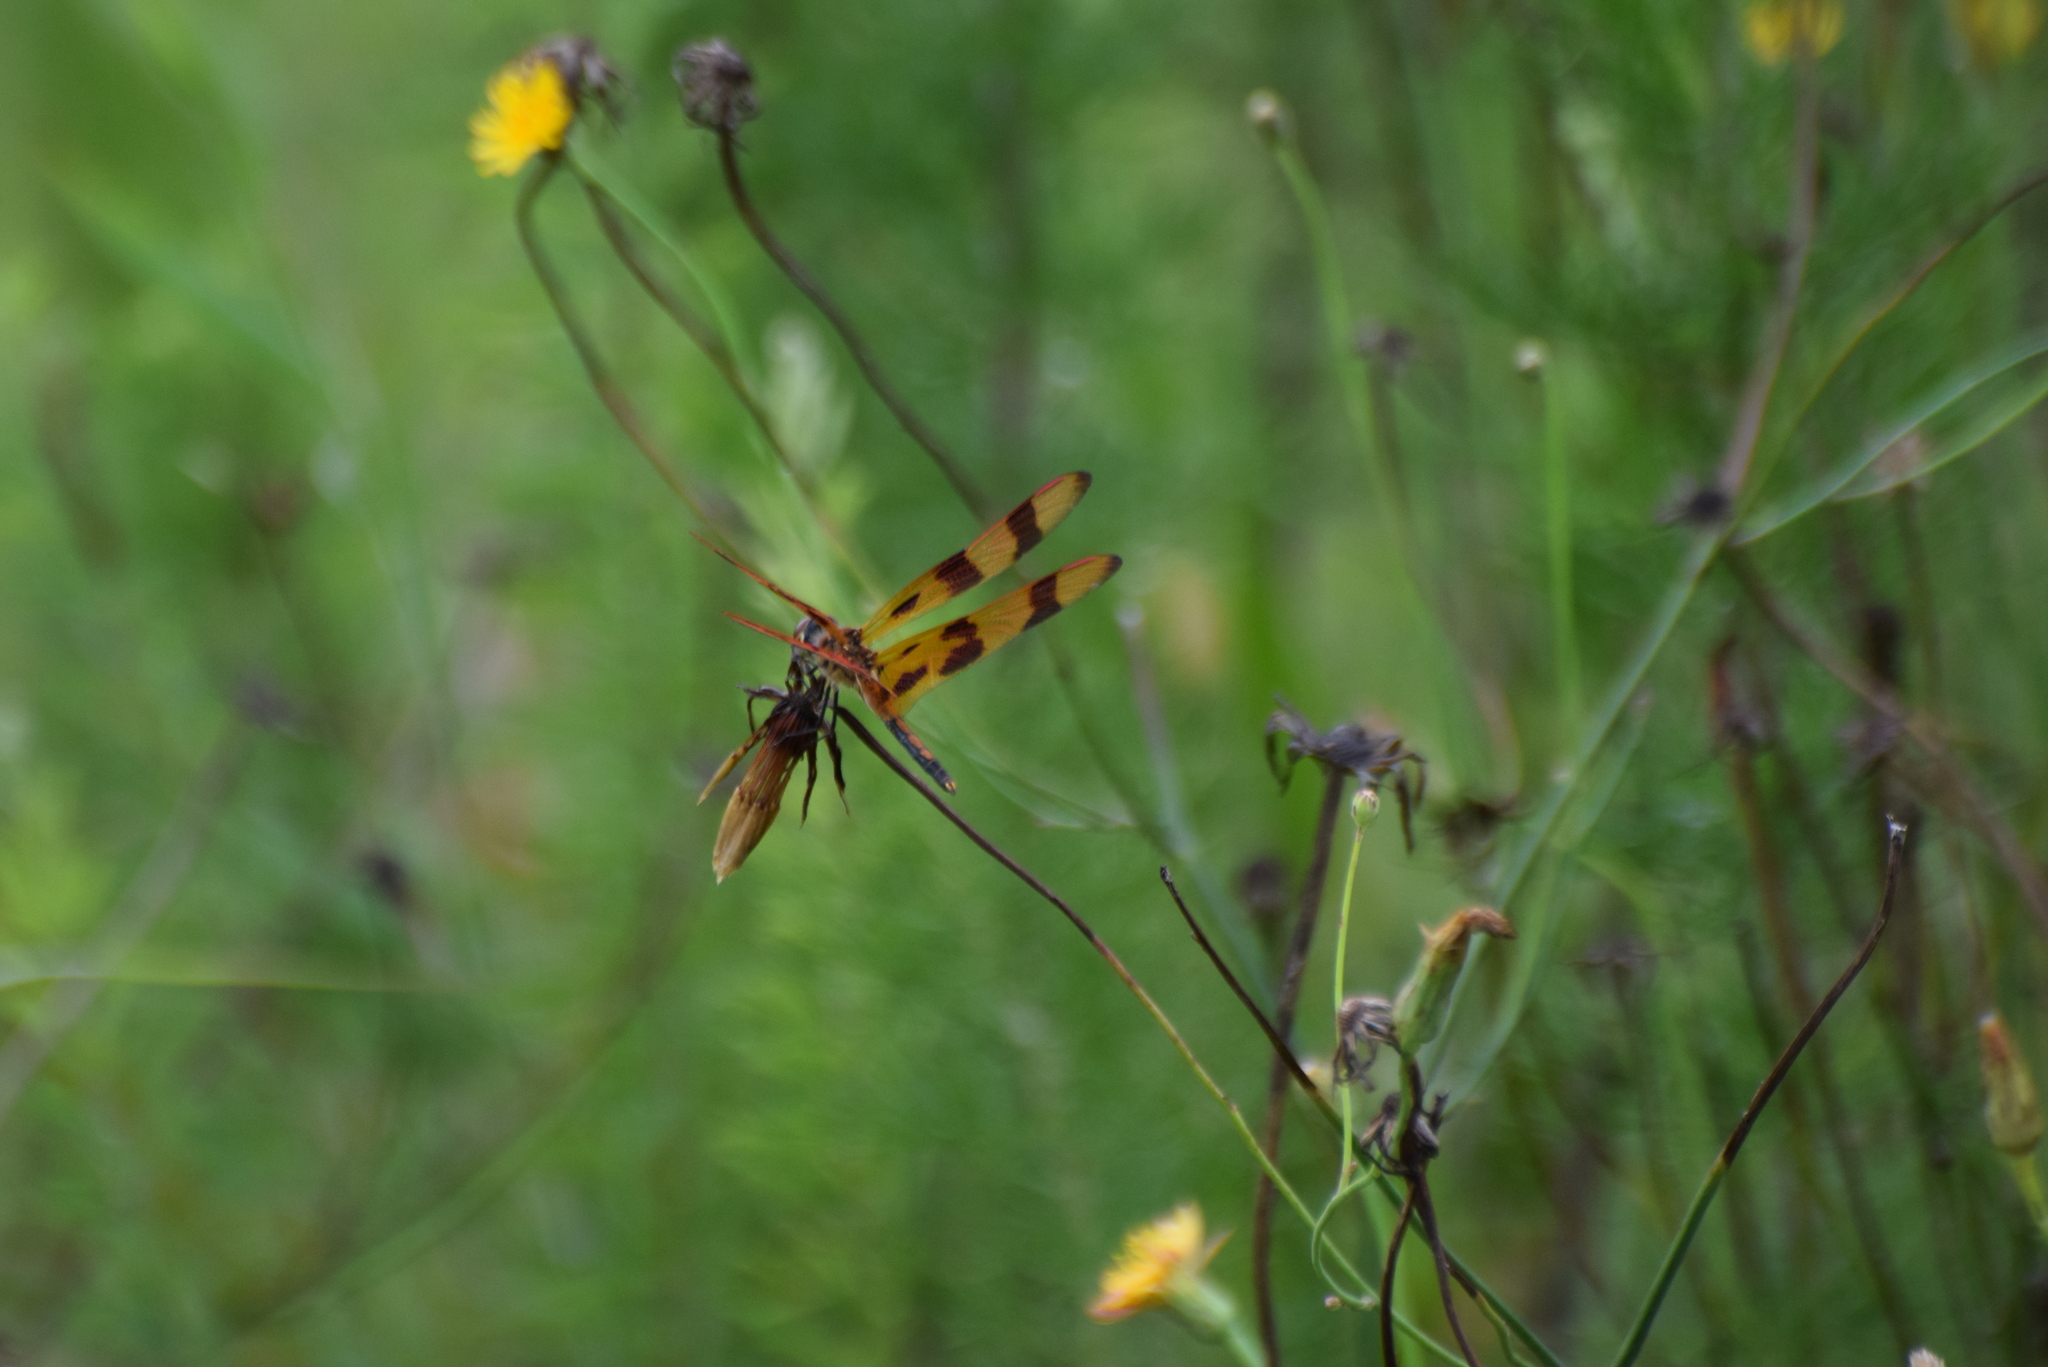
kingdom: Animalia
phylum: Arthropoda
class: Insecta
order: Odonata
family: Libellulidae
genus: Celithemis
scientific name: Celithemis eponina
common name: Halloween pennant
